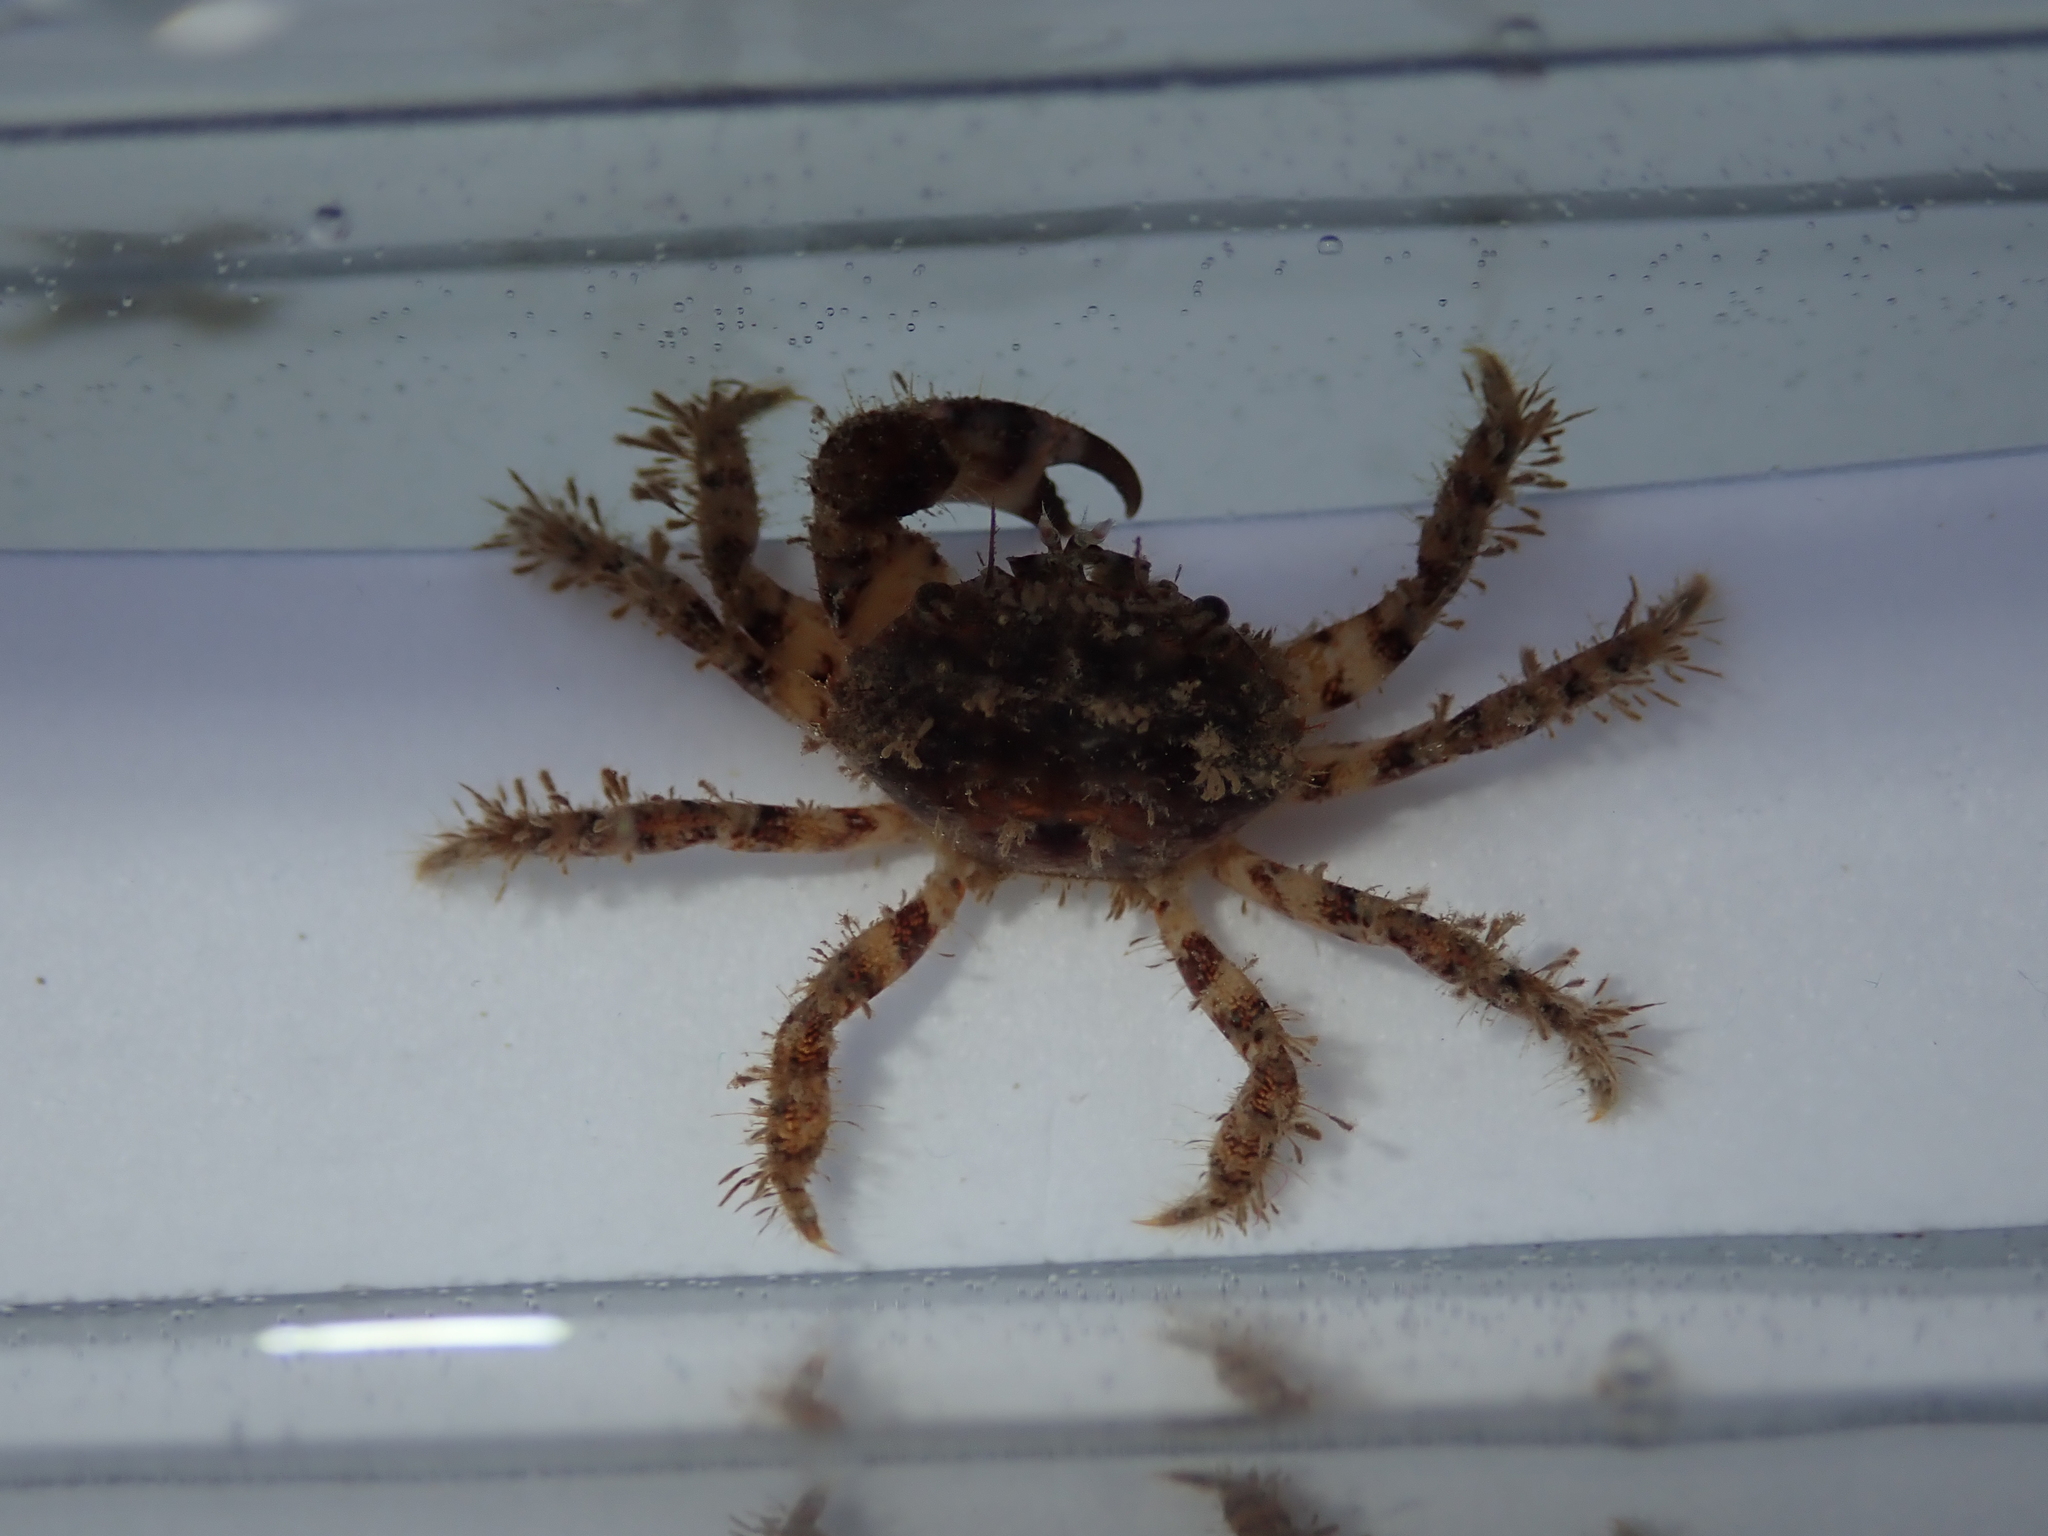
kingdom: Animalia
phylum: Arthropoda
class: Malacostraca
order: Decapoda
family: Pilumnidae
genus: Pilumnus
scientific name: Pilumnus hirtellus
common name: Hairy crab
